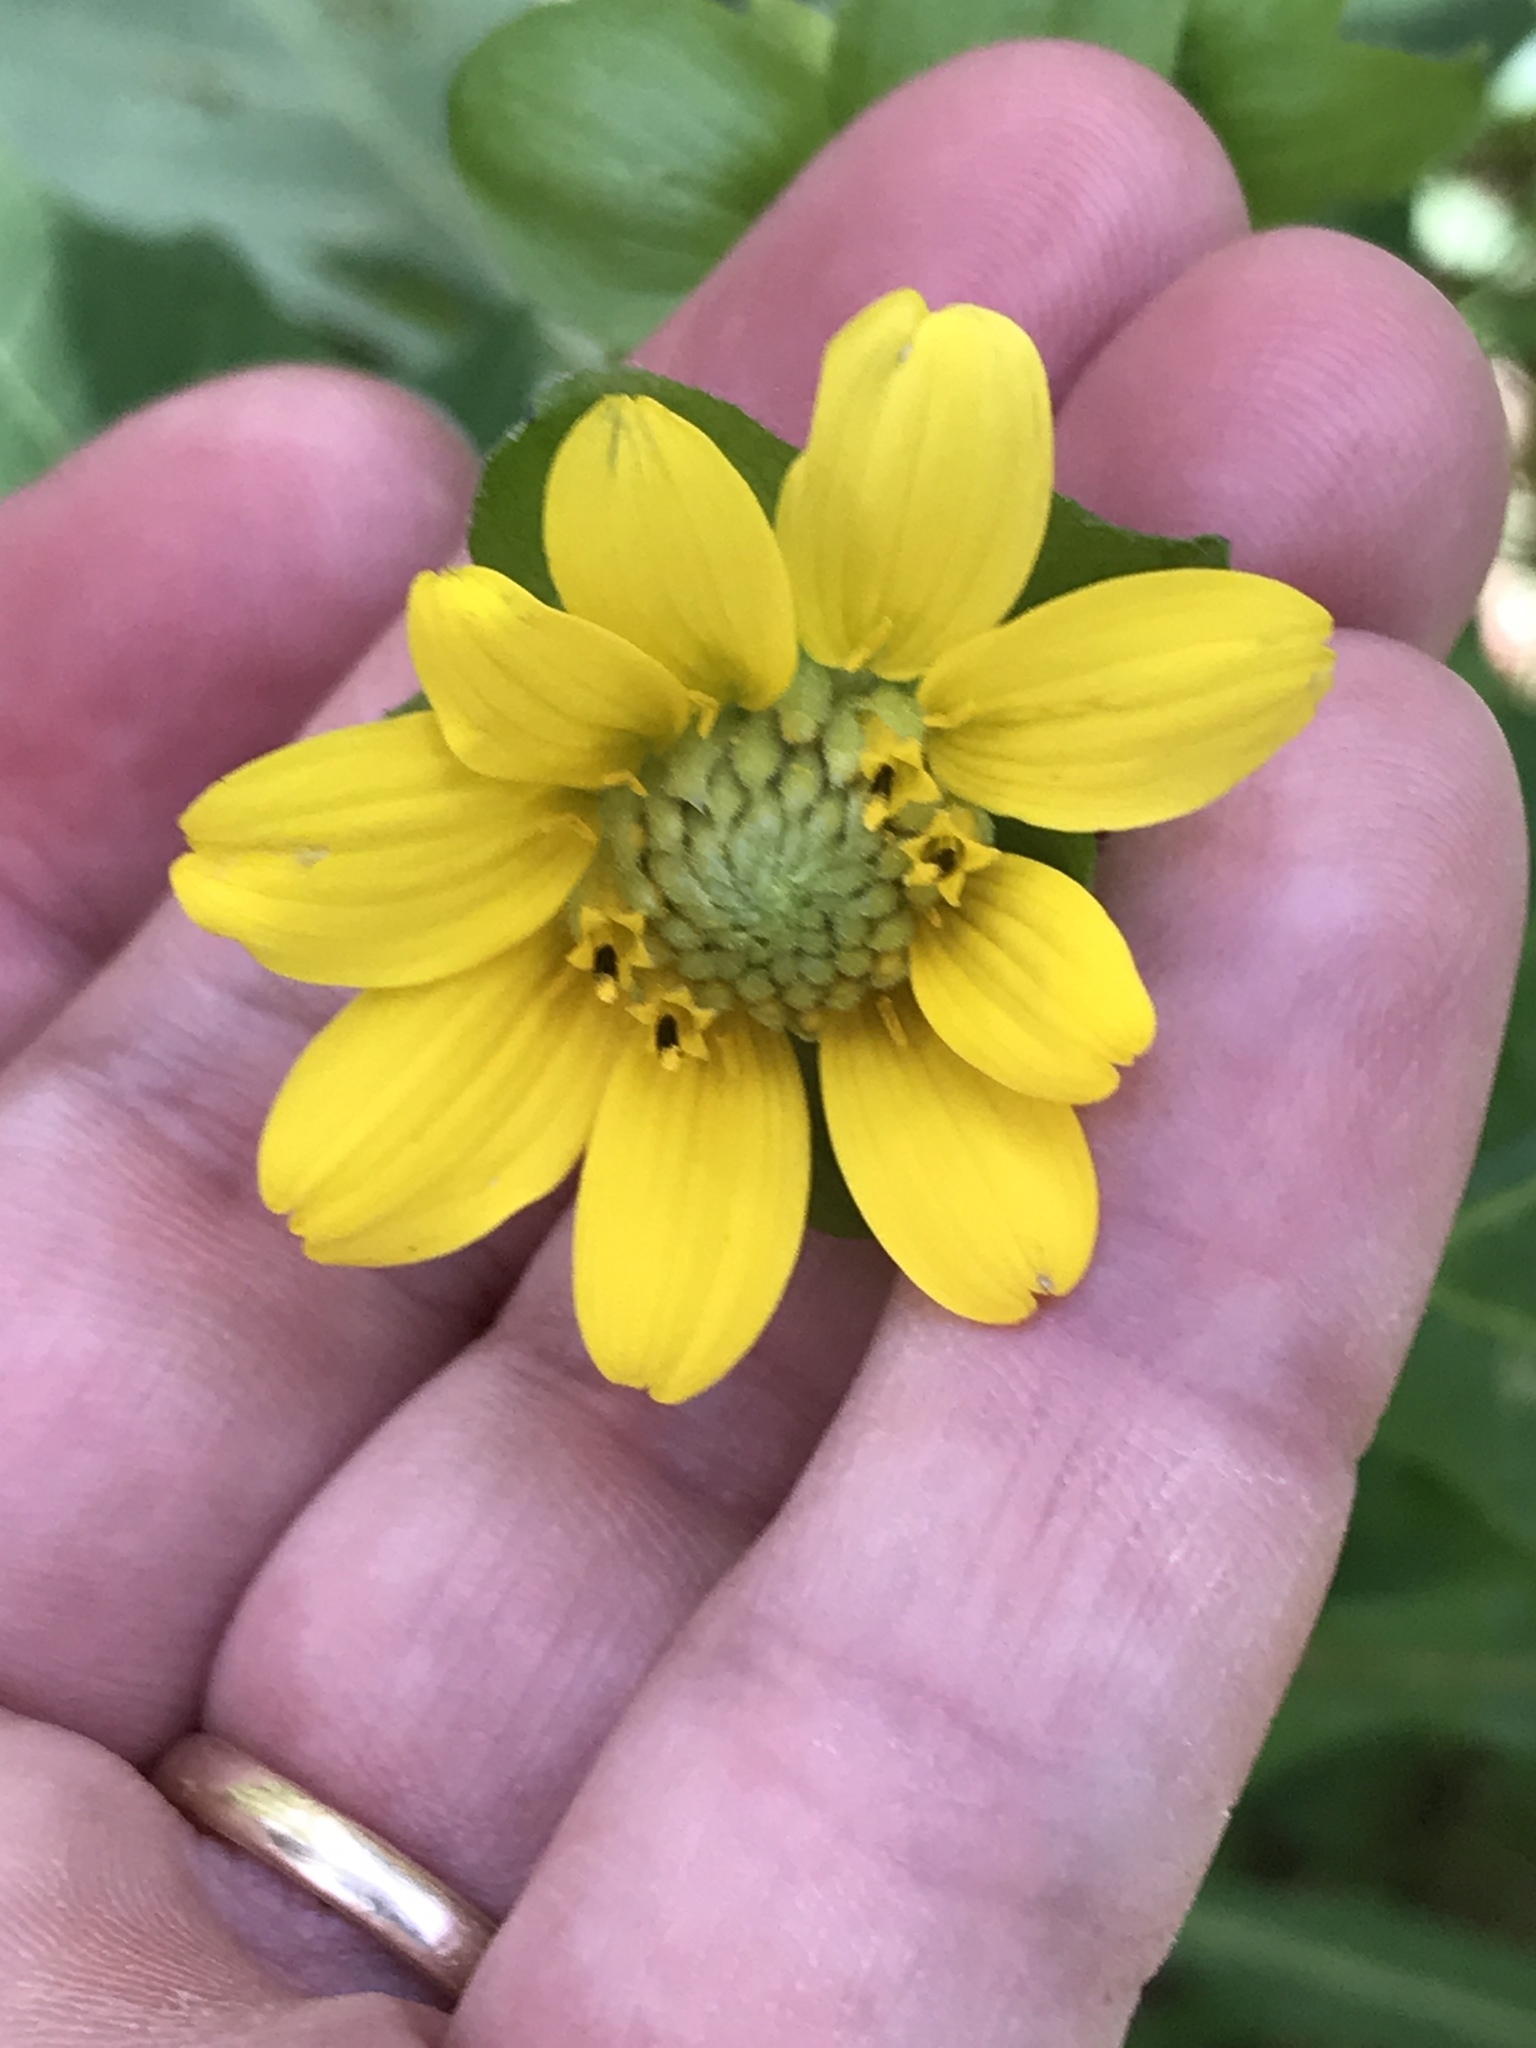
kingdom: Plantae
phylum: Tracheophyta
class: Magnoliopsida
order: Asterales
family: Asteraceae
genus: Smallanthus
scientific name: Smallanthus uvedalia
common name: Bear's-foot
